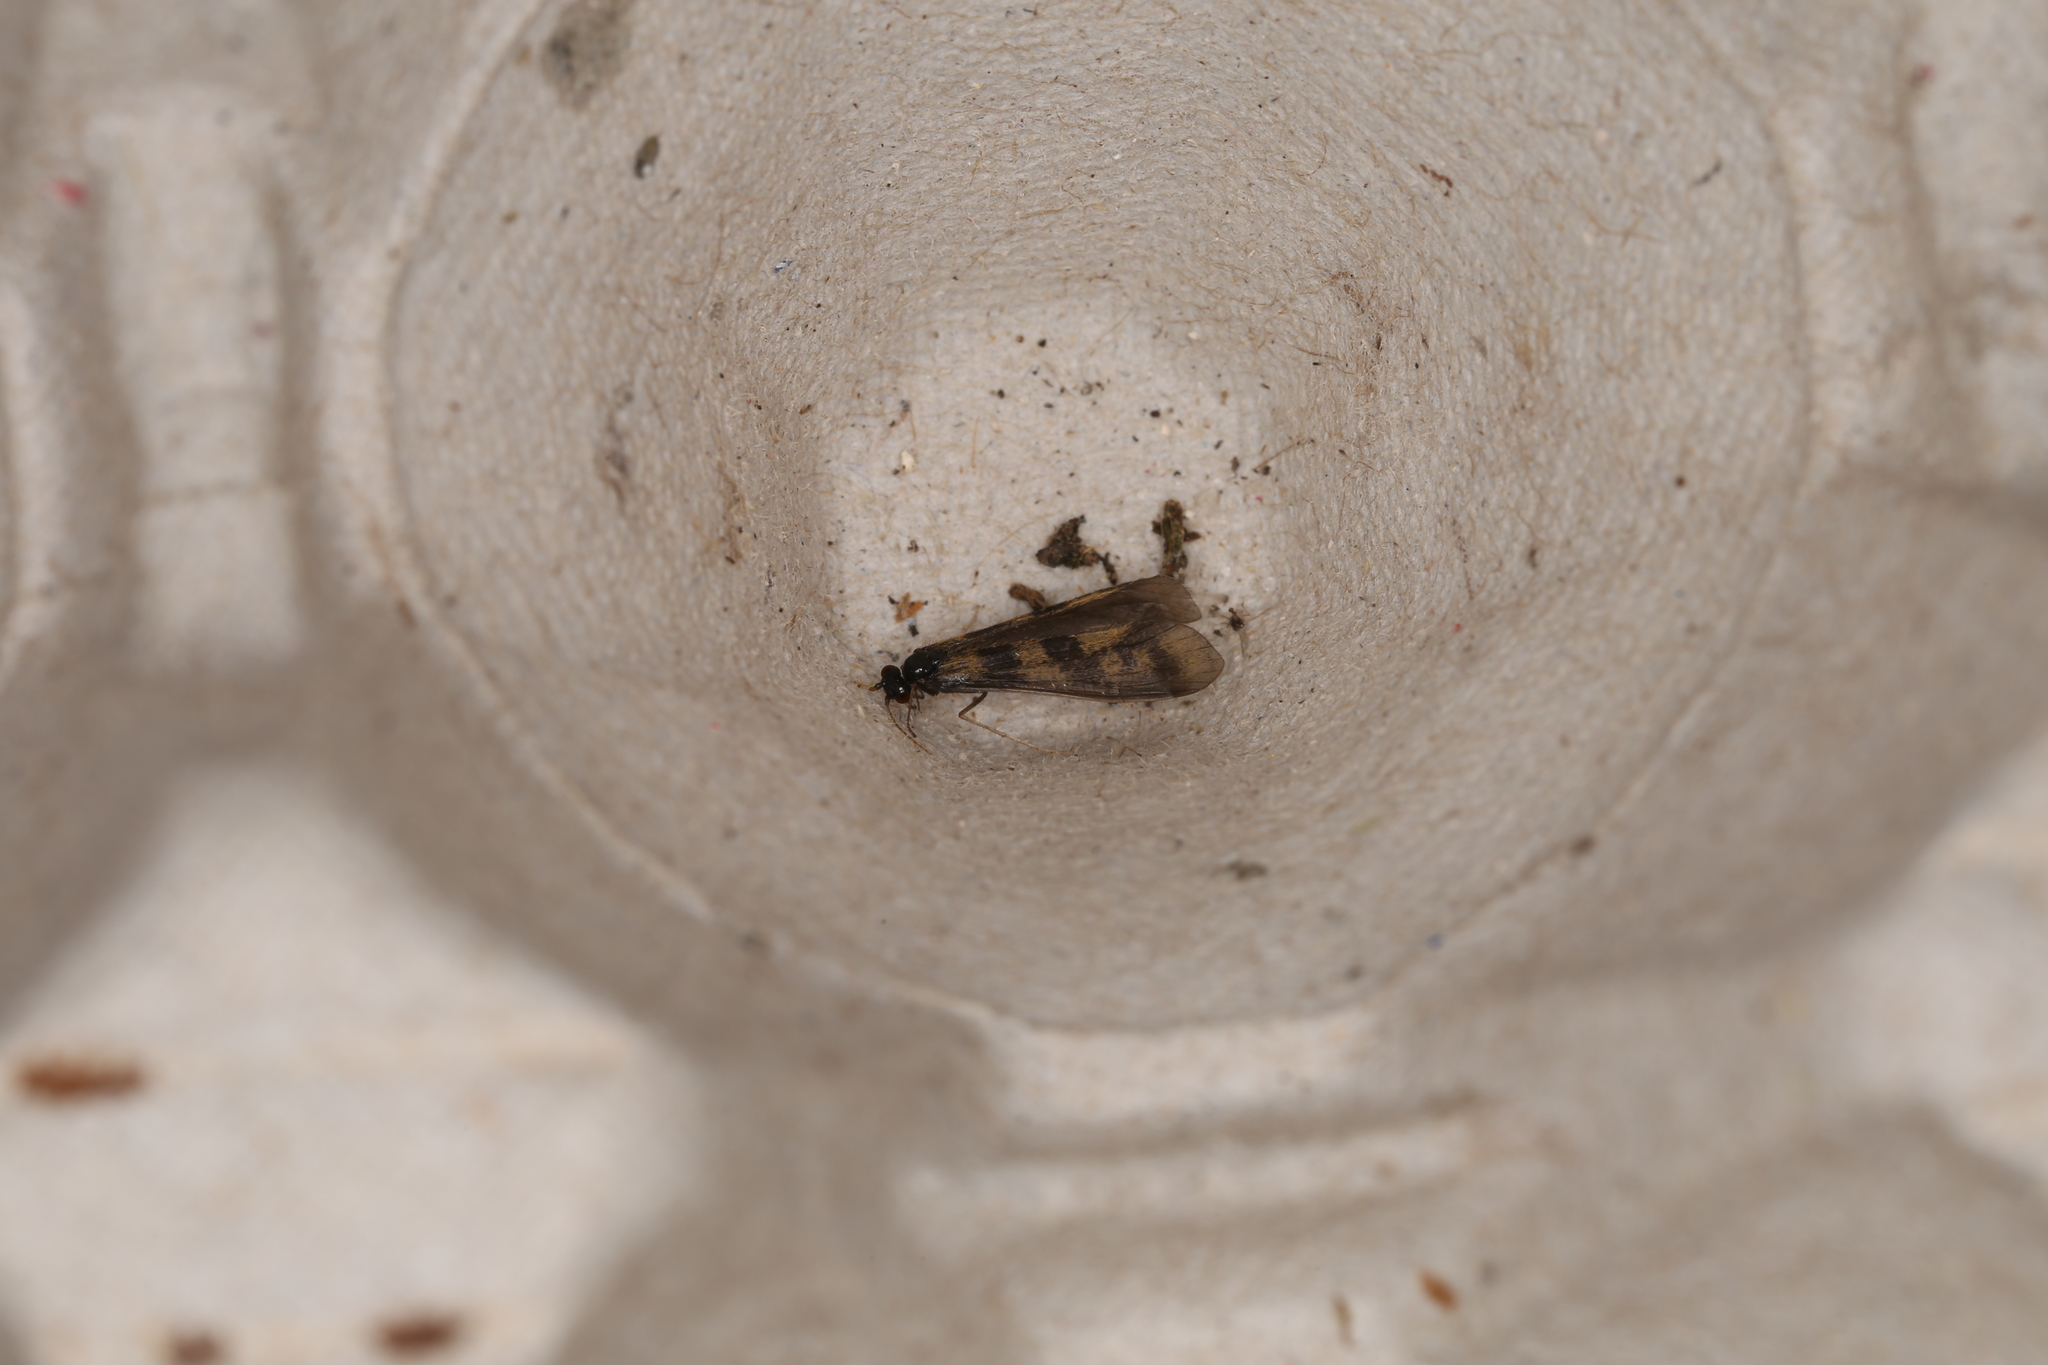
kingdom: Animalia
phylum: Arthropoda
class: Insecta
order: Trichoptera
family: Leptoceridae
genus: Mystacides
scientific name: Mystacides longicornis
